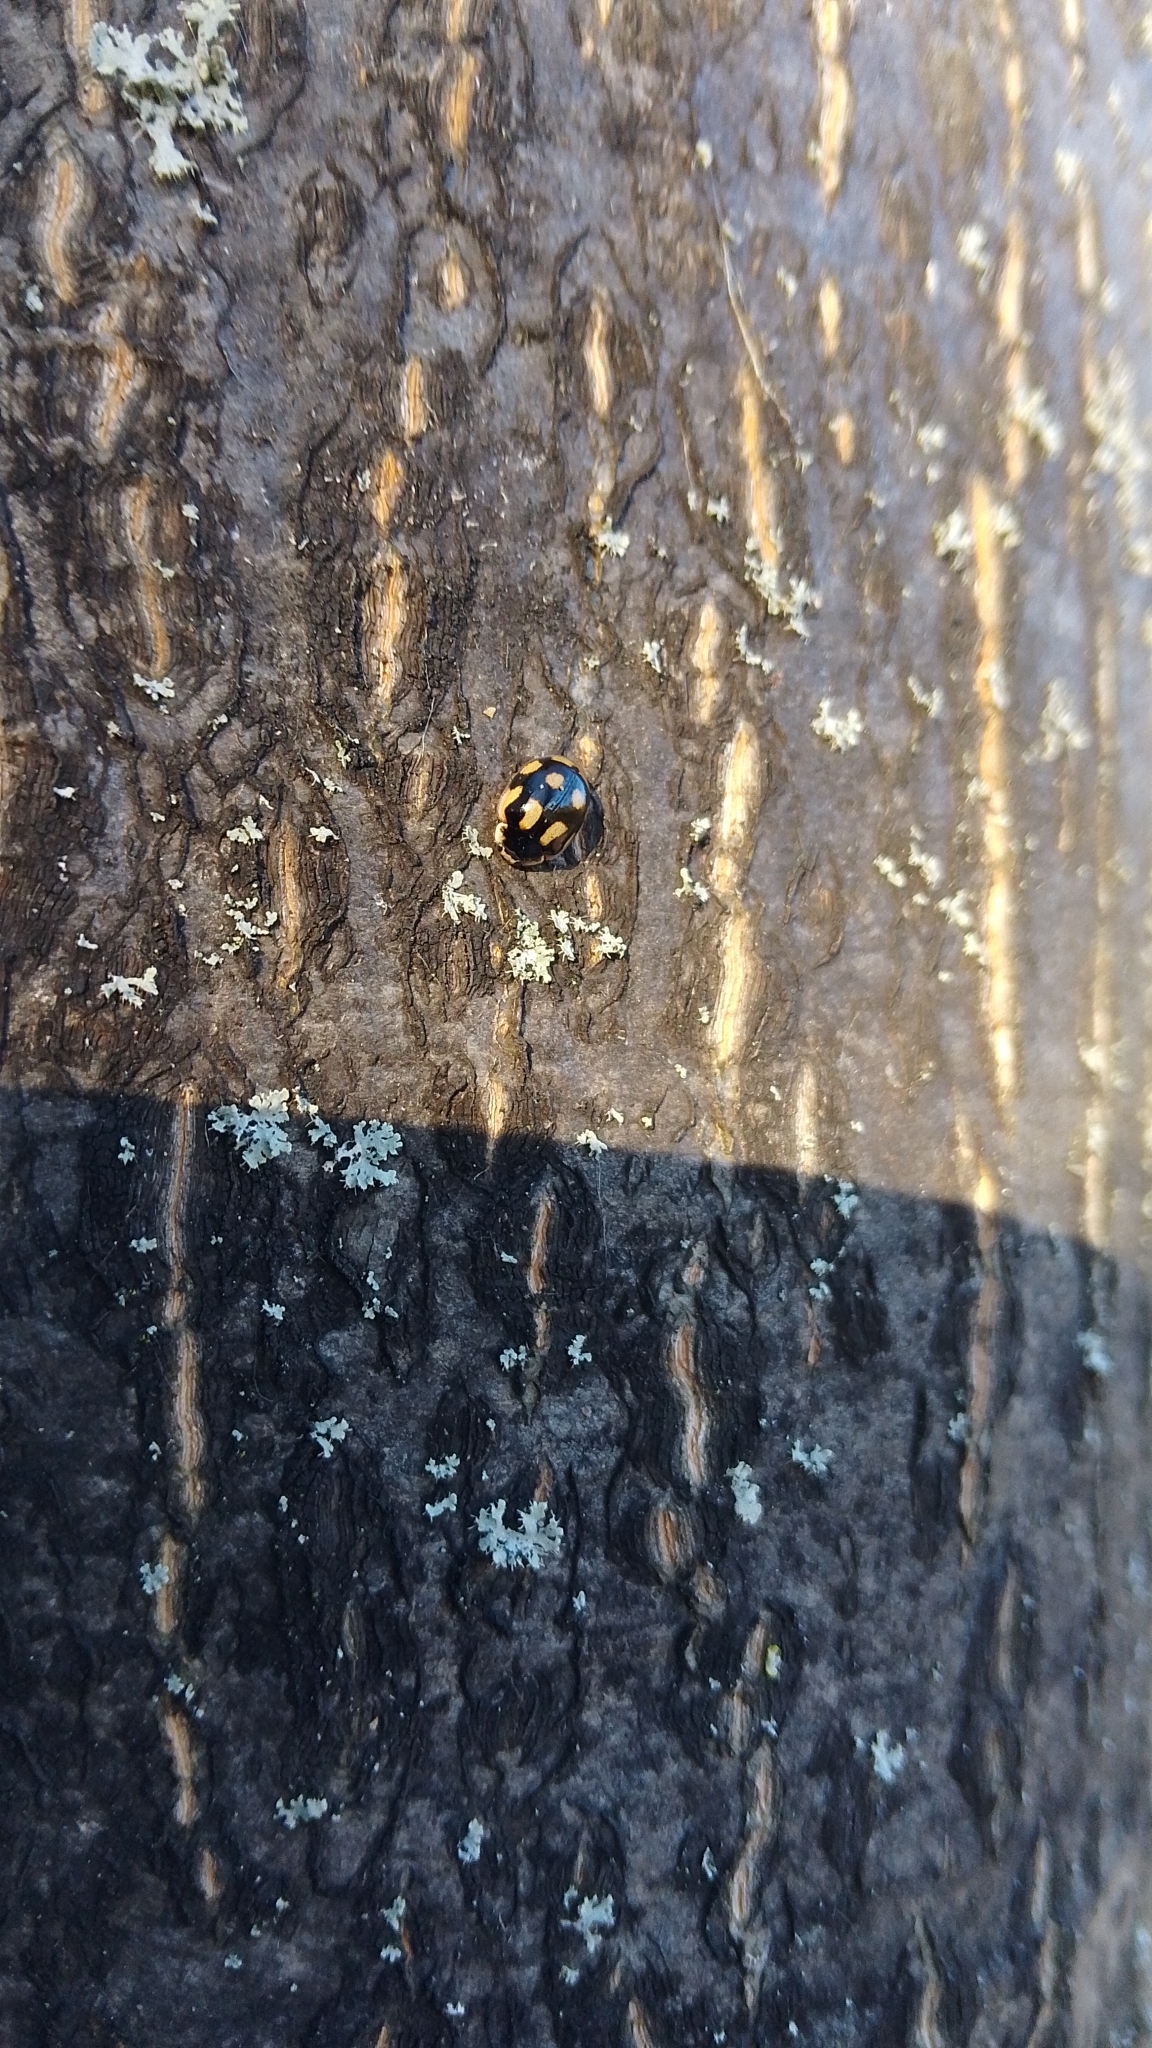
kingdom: Animalia
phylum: Arthropoda
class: Insecta
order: Coleoptera
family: Coccinellidae
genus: Adalia
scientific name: Adalia decempunctata
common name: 10-spot ladybird
